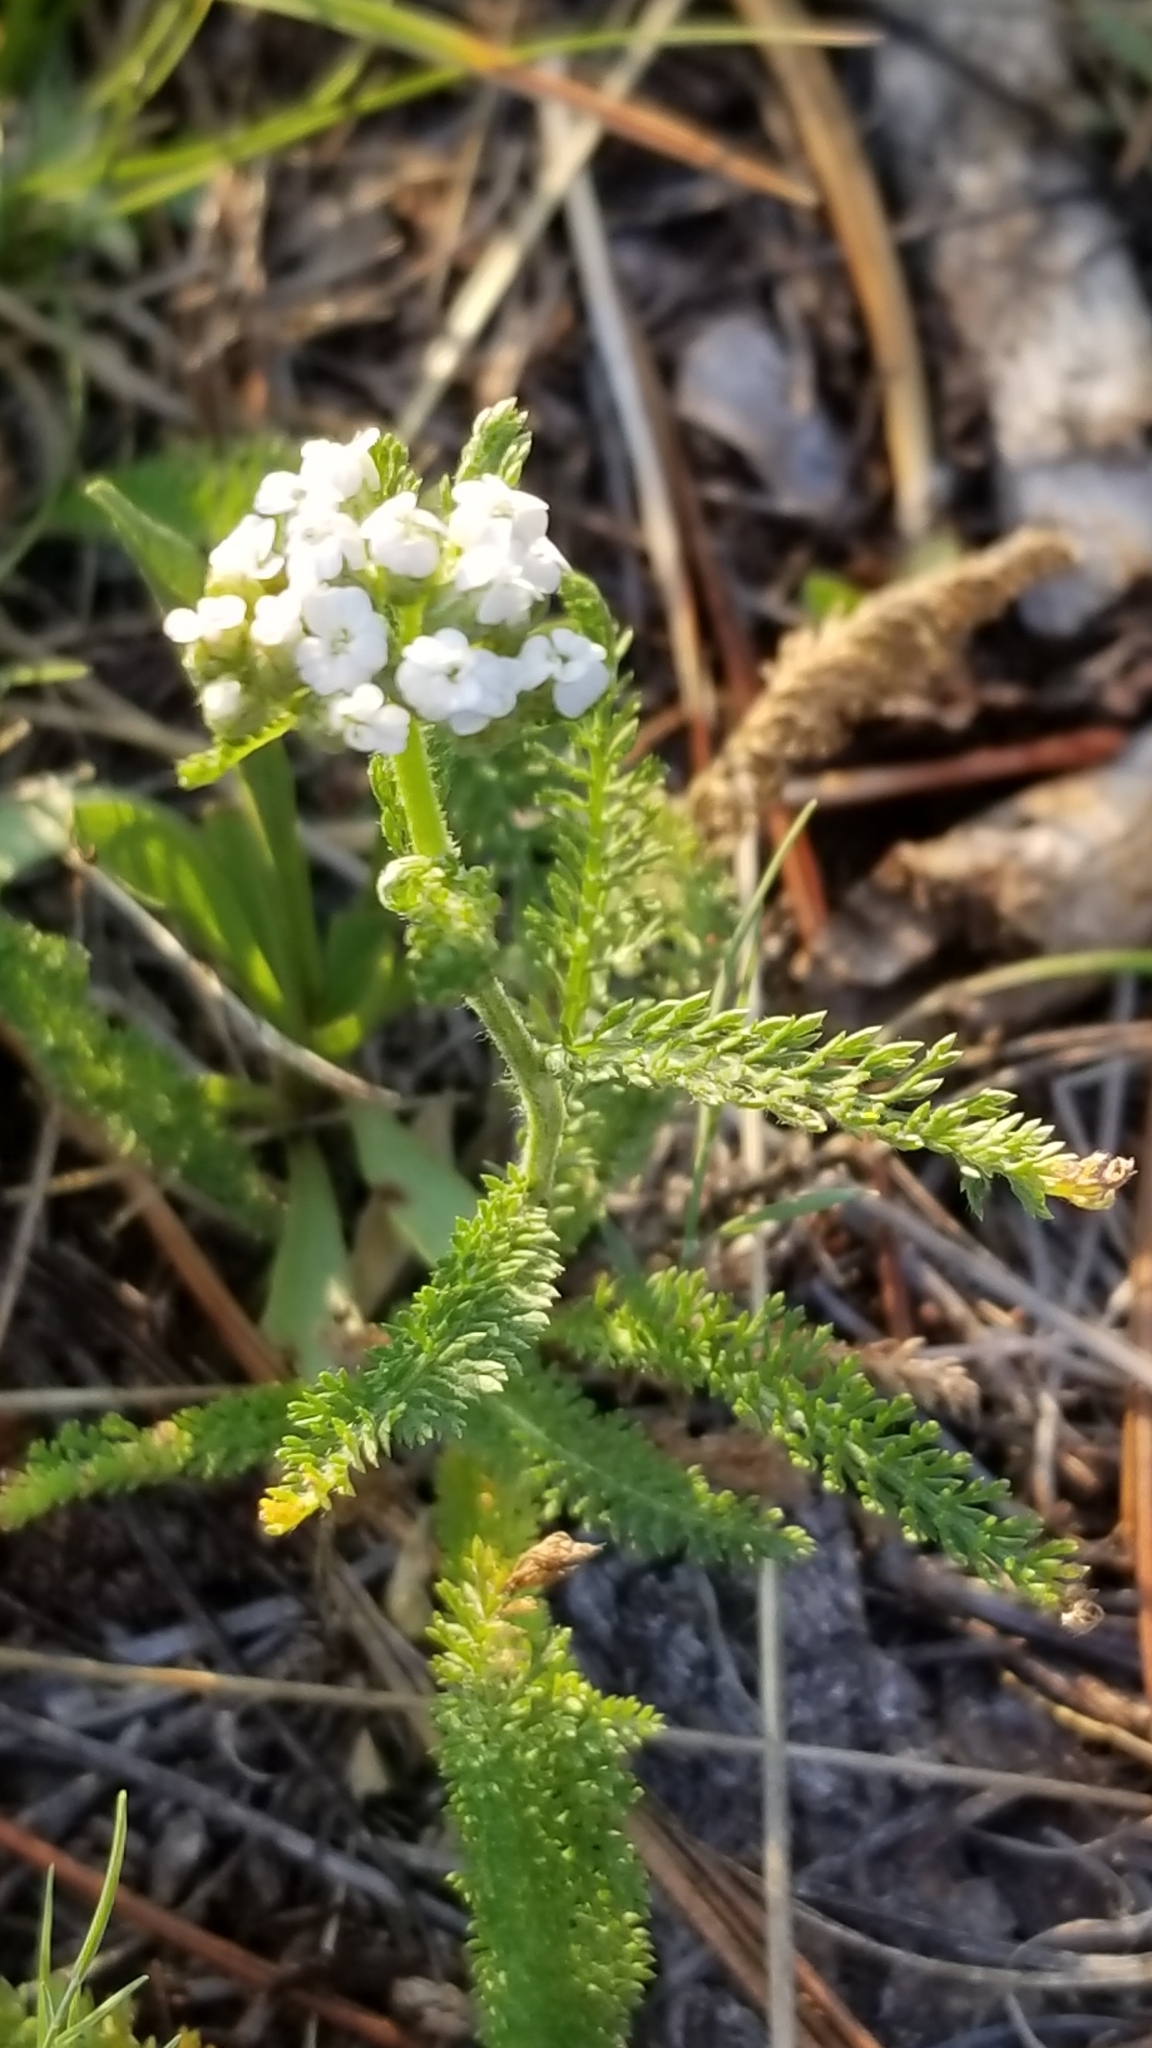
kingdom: Plantae
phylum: Tracheophyta
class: Magnoliopsida
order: Asterales
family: Asteraceae
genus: Achillea
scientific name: Achillea millefolium
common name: Yarrow
